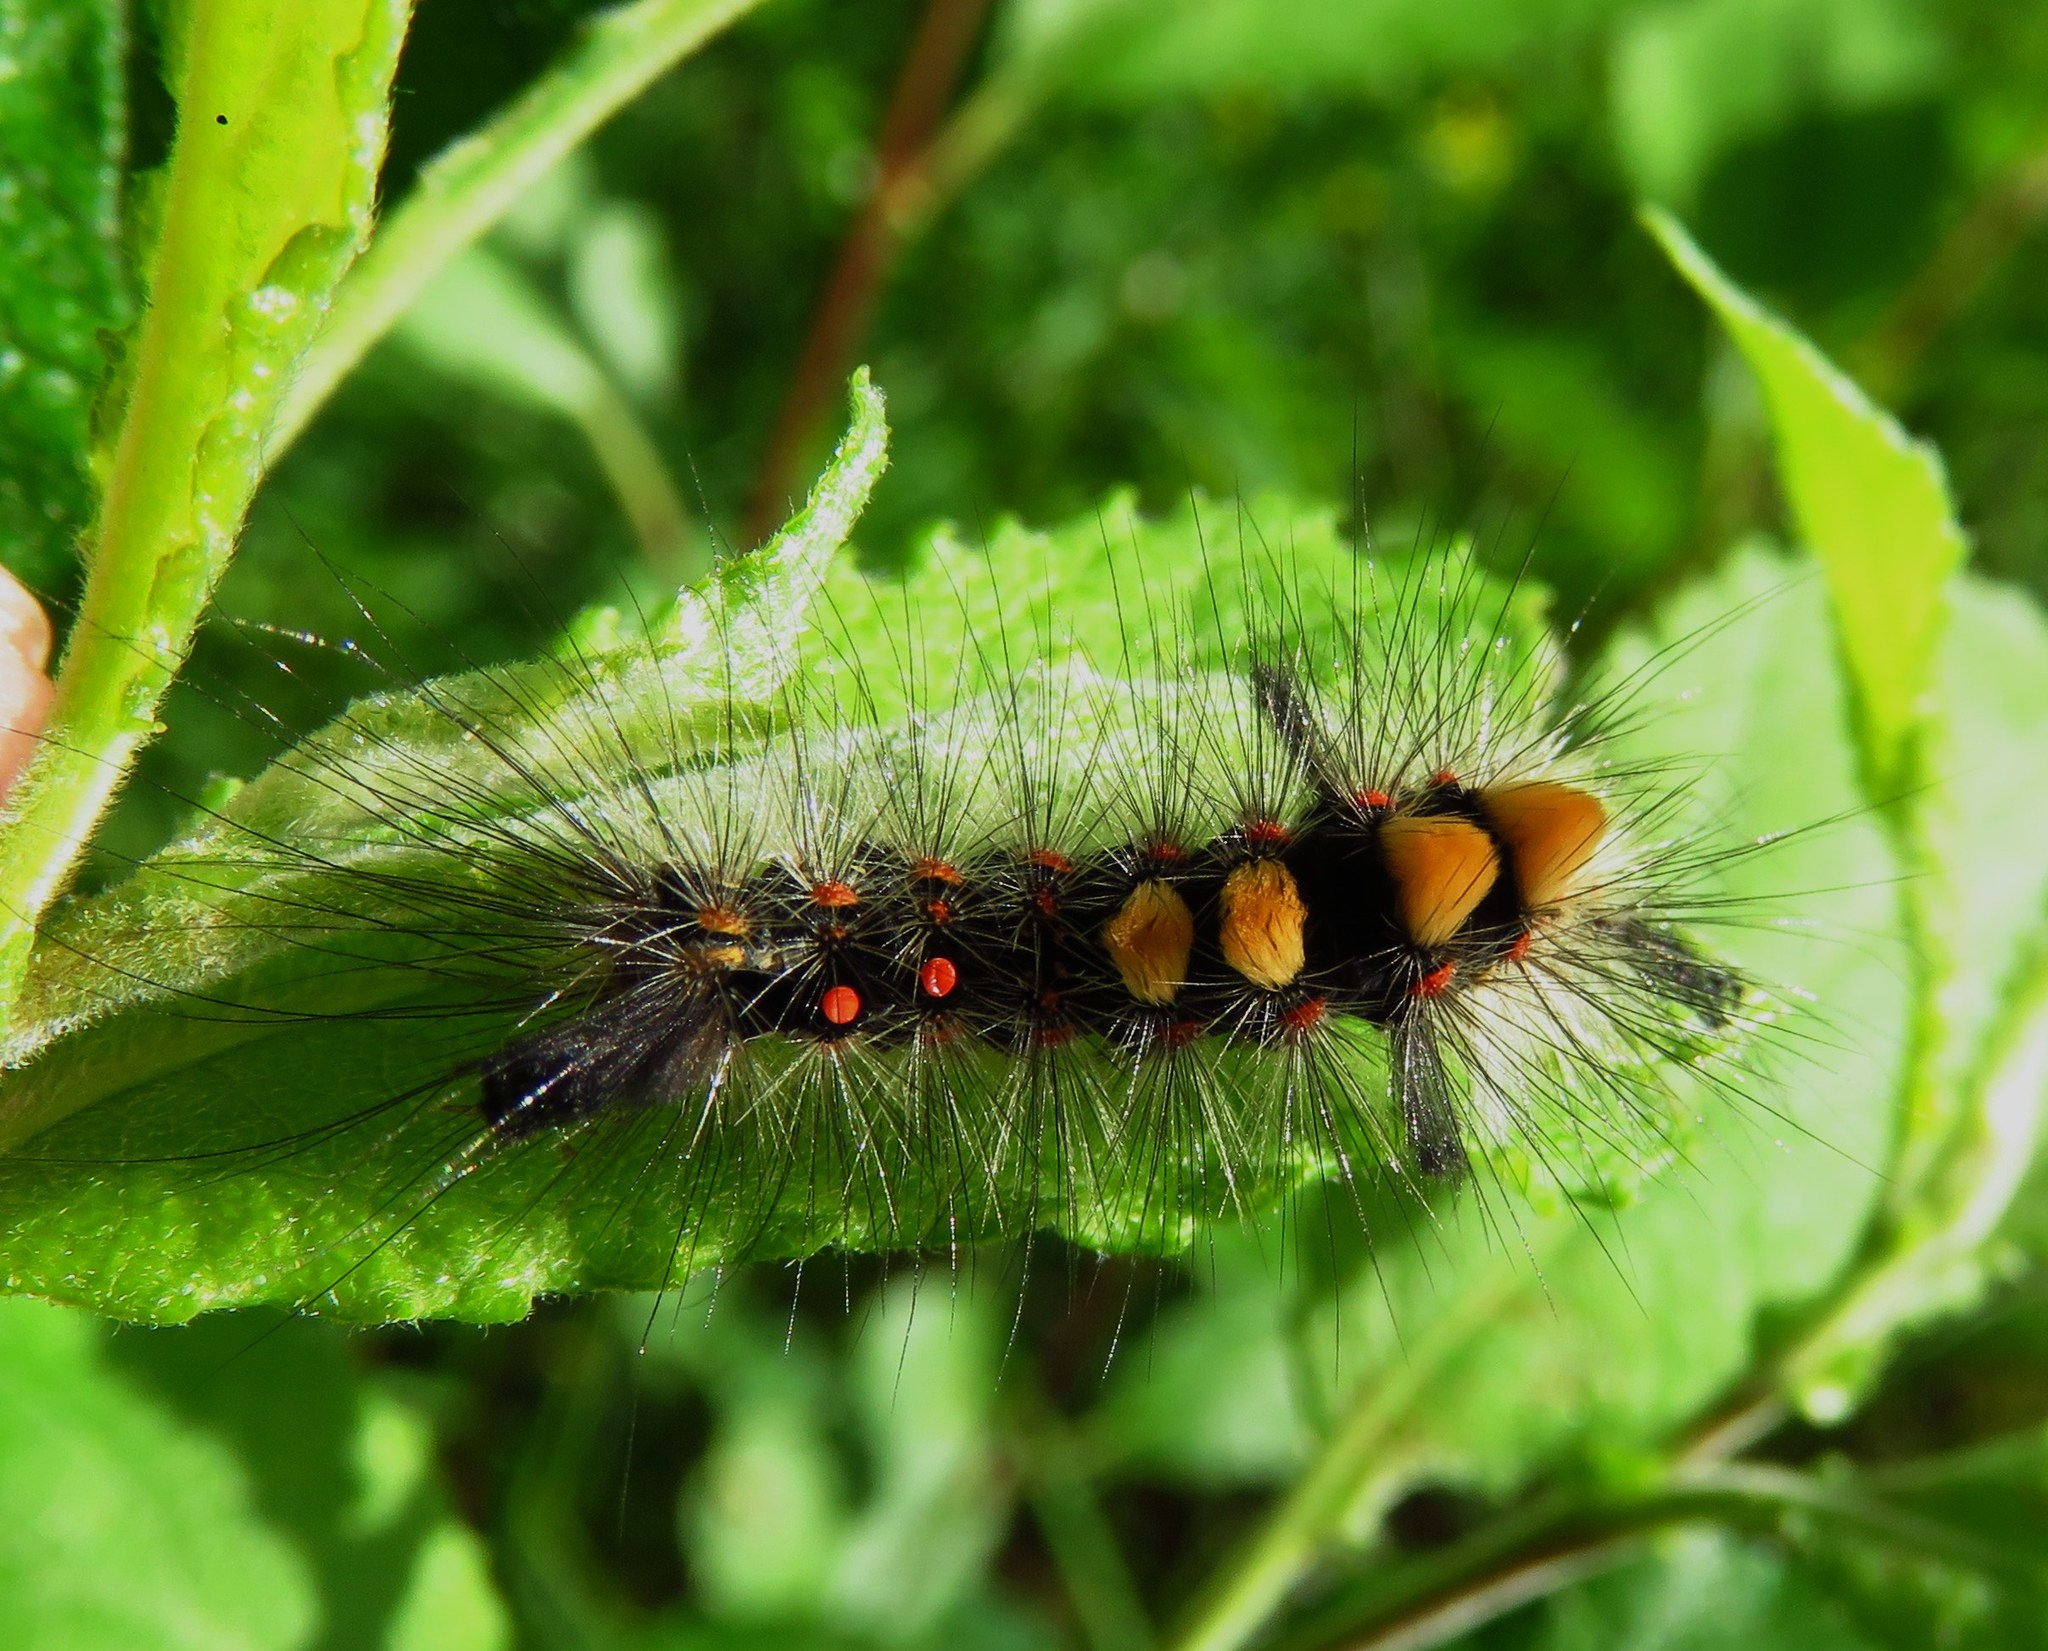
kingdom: Animalia
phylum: Arthropoda
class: Insecta
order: Lepidoptera
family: Erebidae
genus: Orgyia
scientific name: Orgyia antiqua
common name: Vapourer
